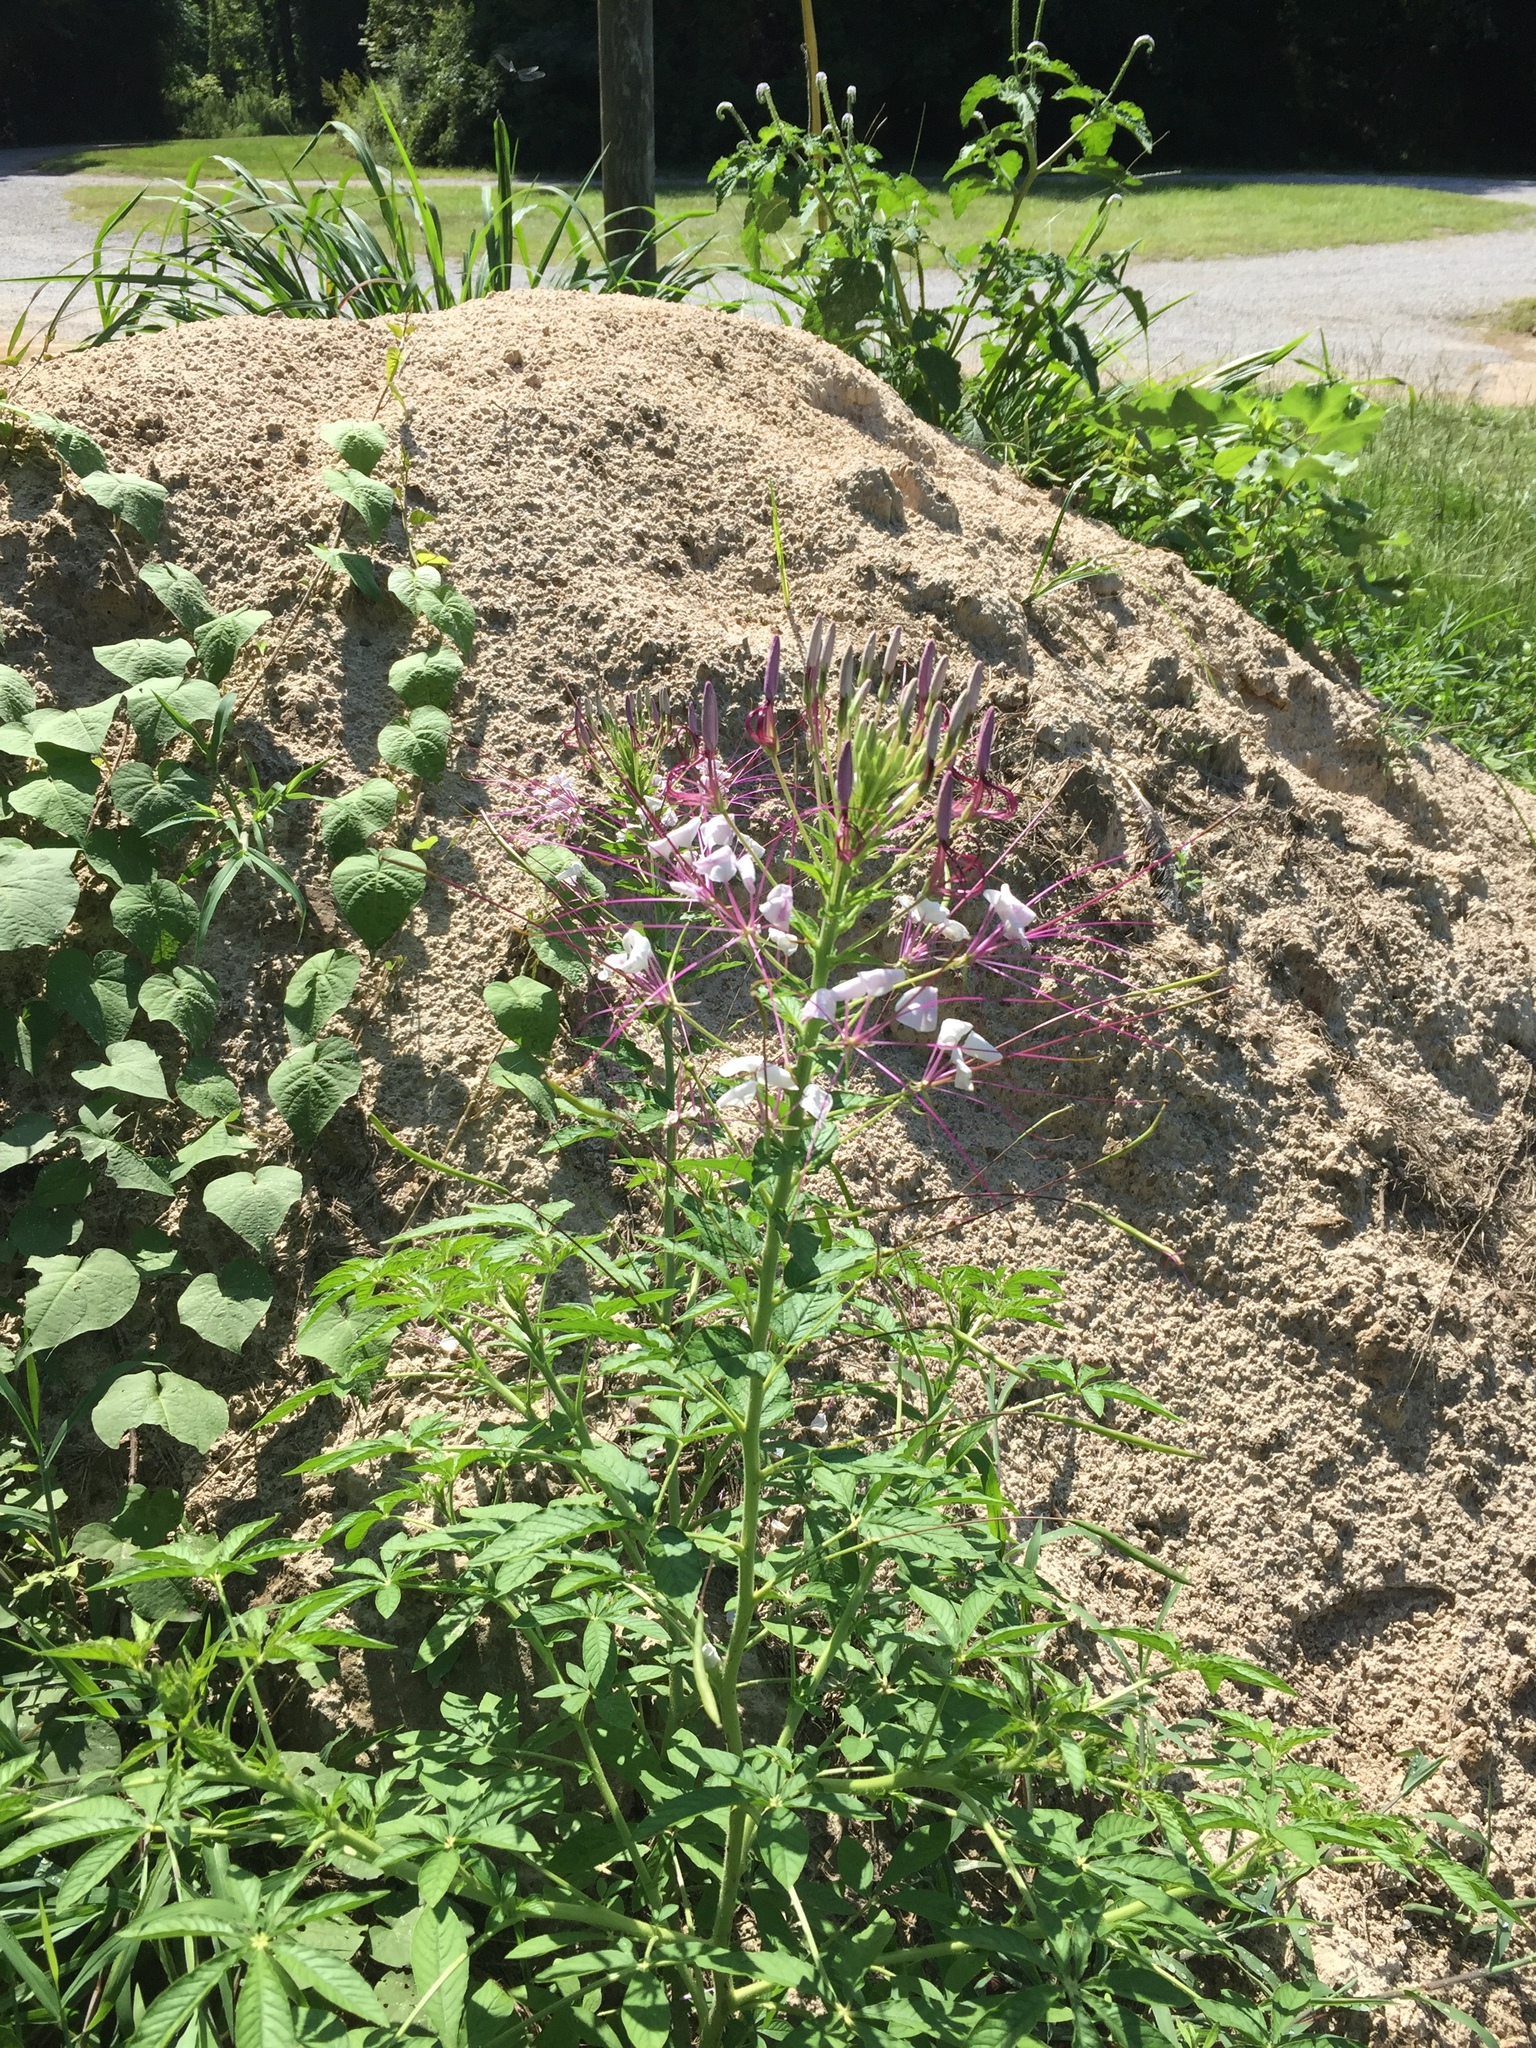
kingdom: Plantae
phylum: Tracheophyta
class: Magnoliopsida
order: Brassicales
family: Cleomaceae
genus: Tarenaya
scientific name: Tarenaya houtteana
